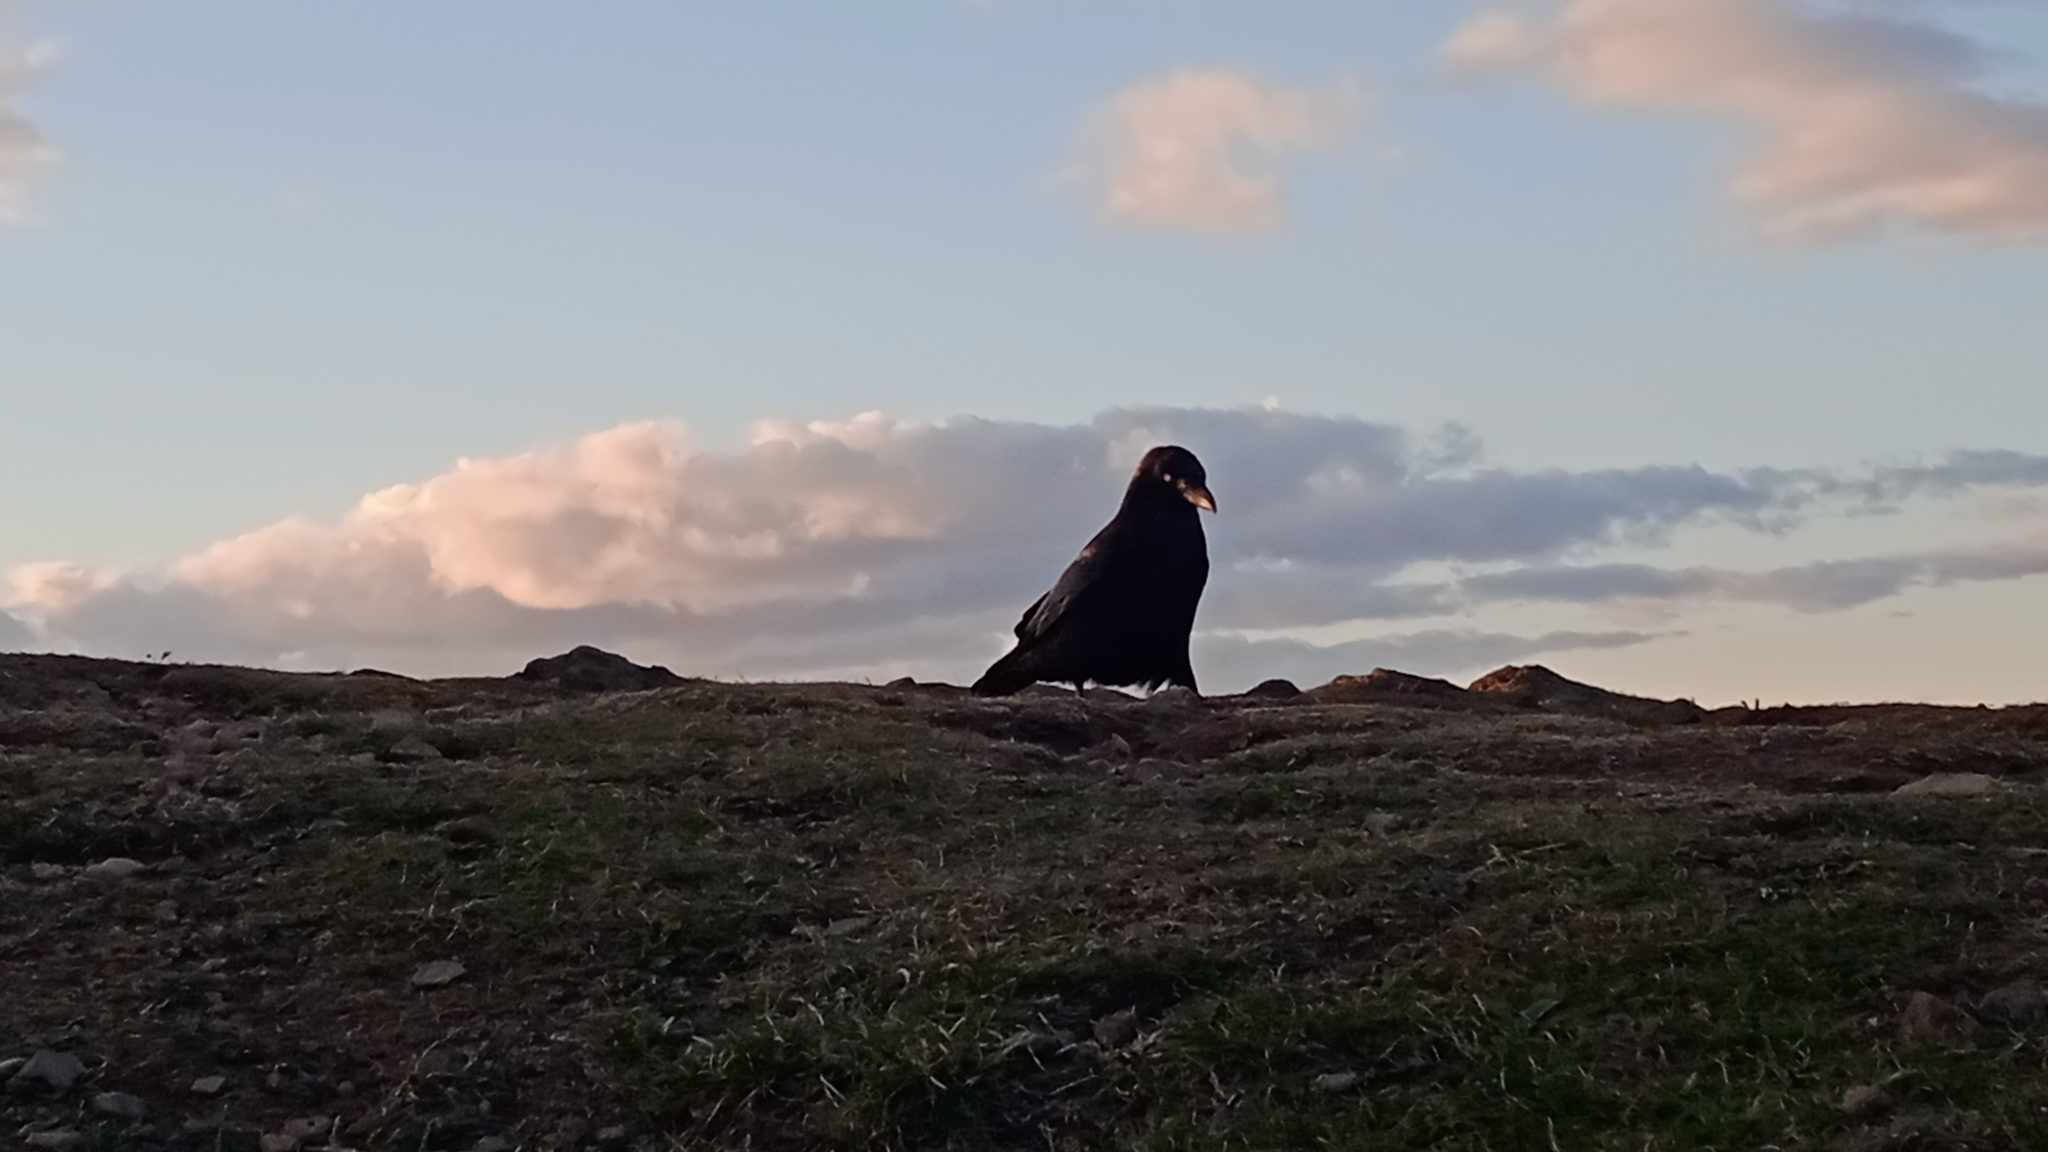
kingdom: Animalia
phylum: Chordata
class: Aves
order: Passeriformes
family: Corvidae
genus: Corvus
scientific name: Corvus corone
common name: Carrion crow
